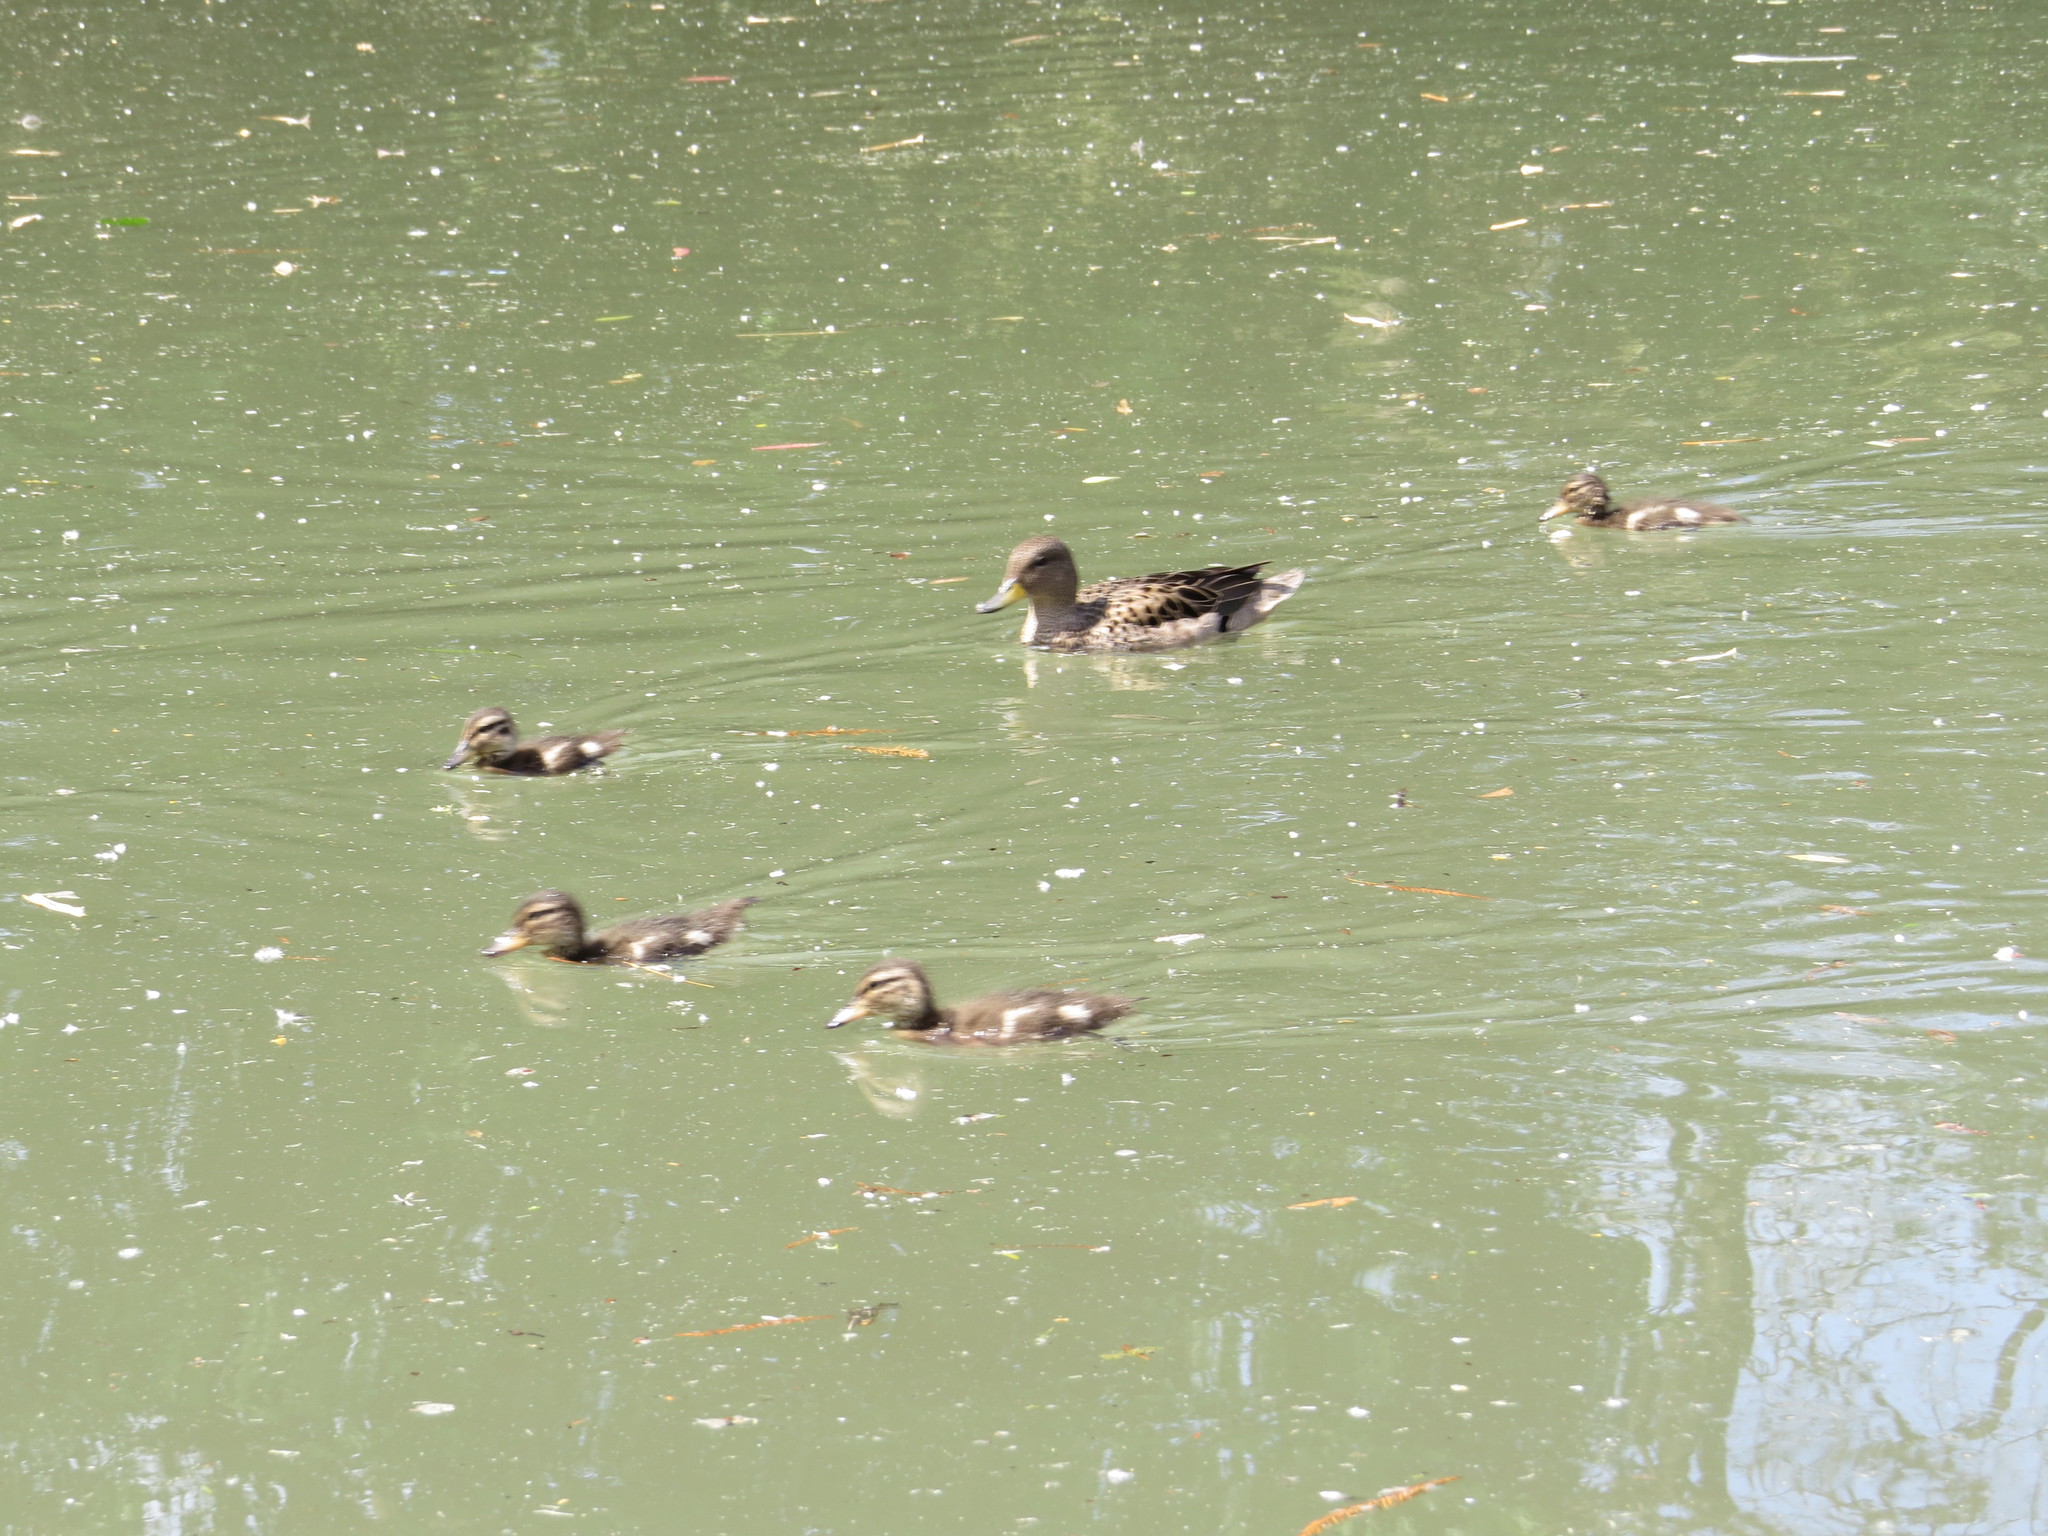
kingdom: Animalia
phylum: Chordata
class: Aves
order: Anseriformes
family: Anatidae
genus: Anas
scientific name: Anas flavirostris
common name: Yellow-billed teal
